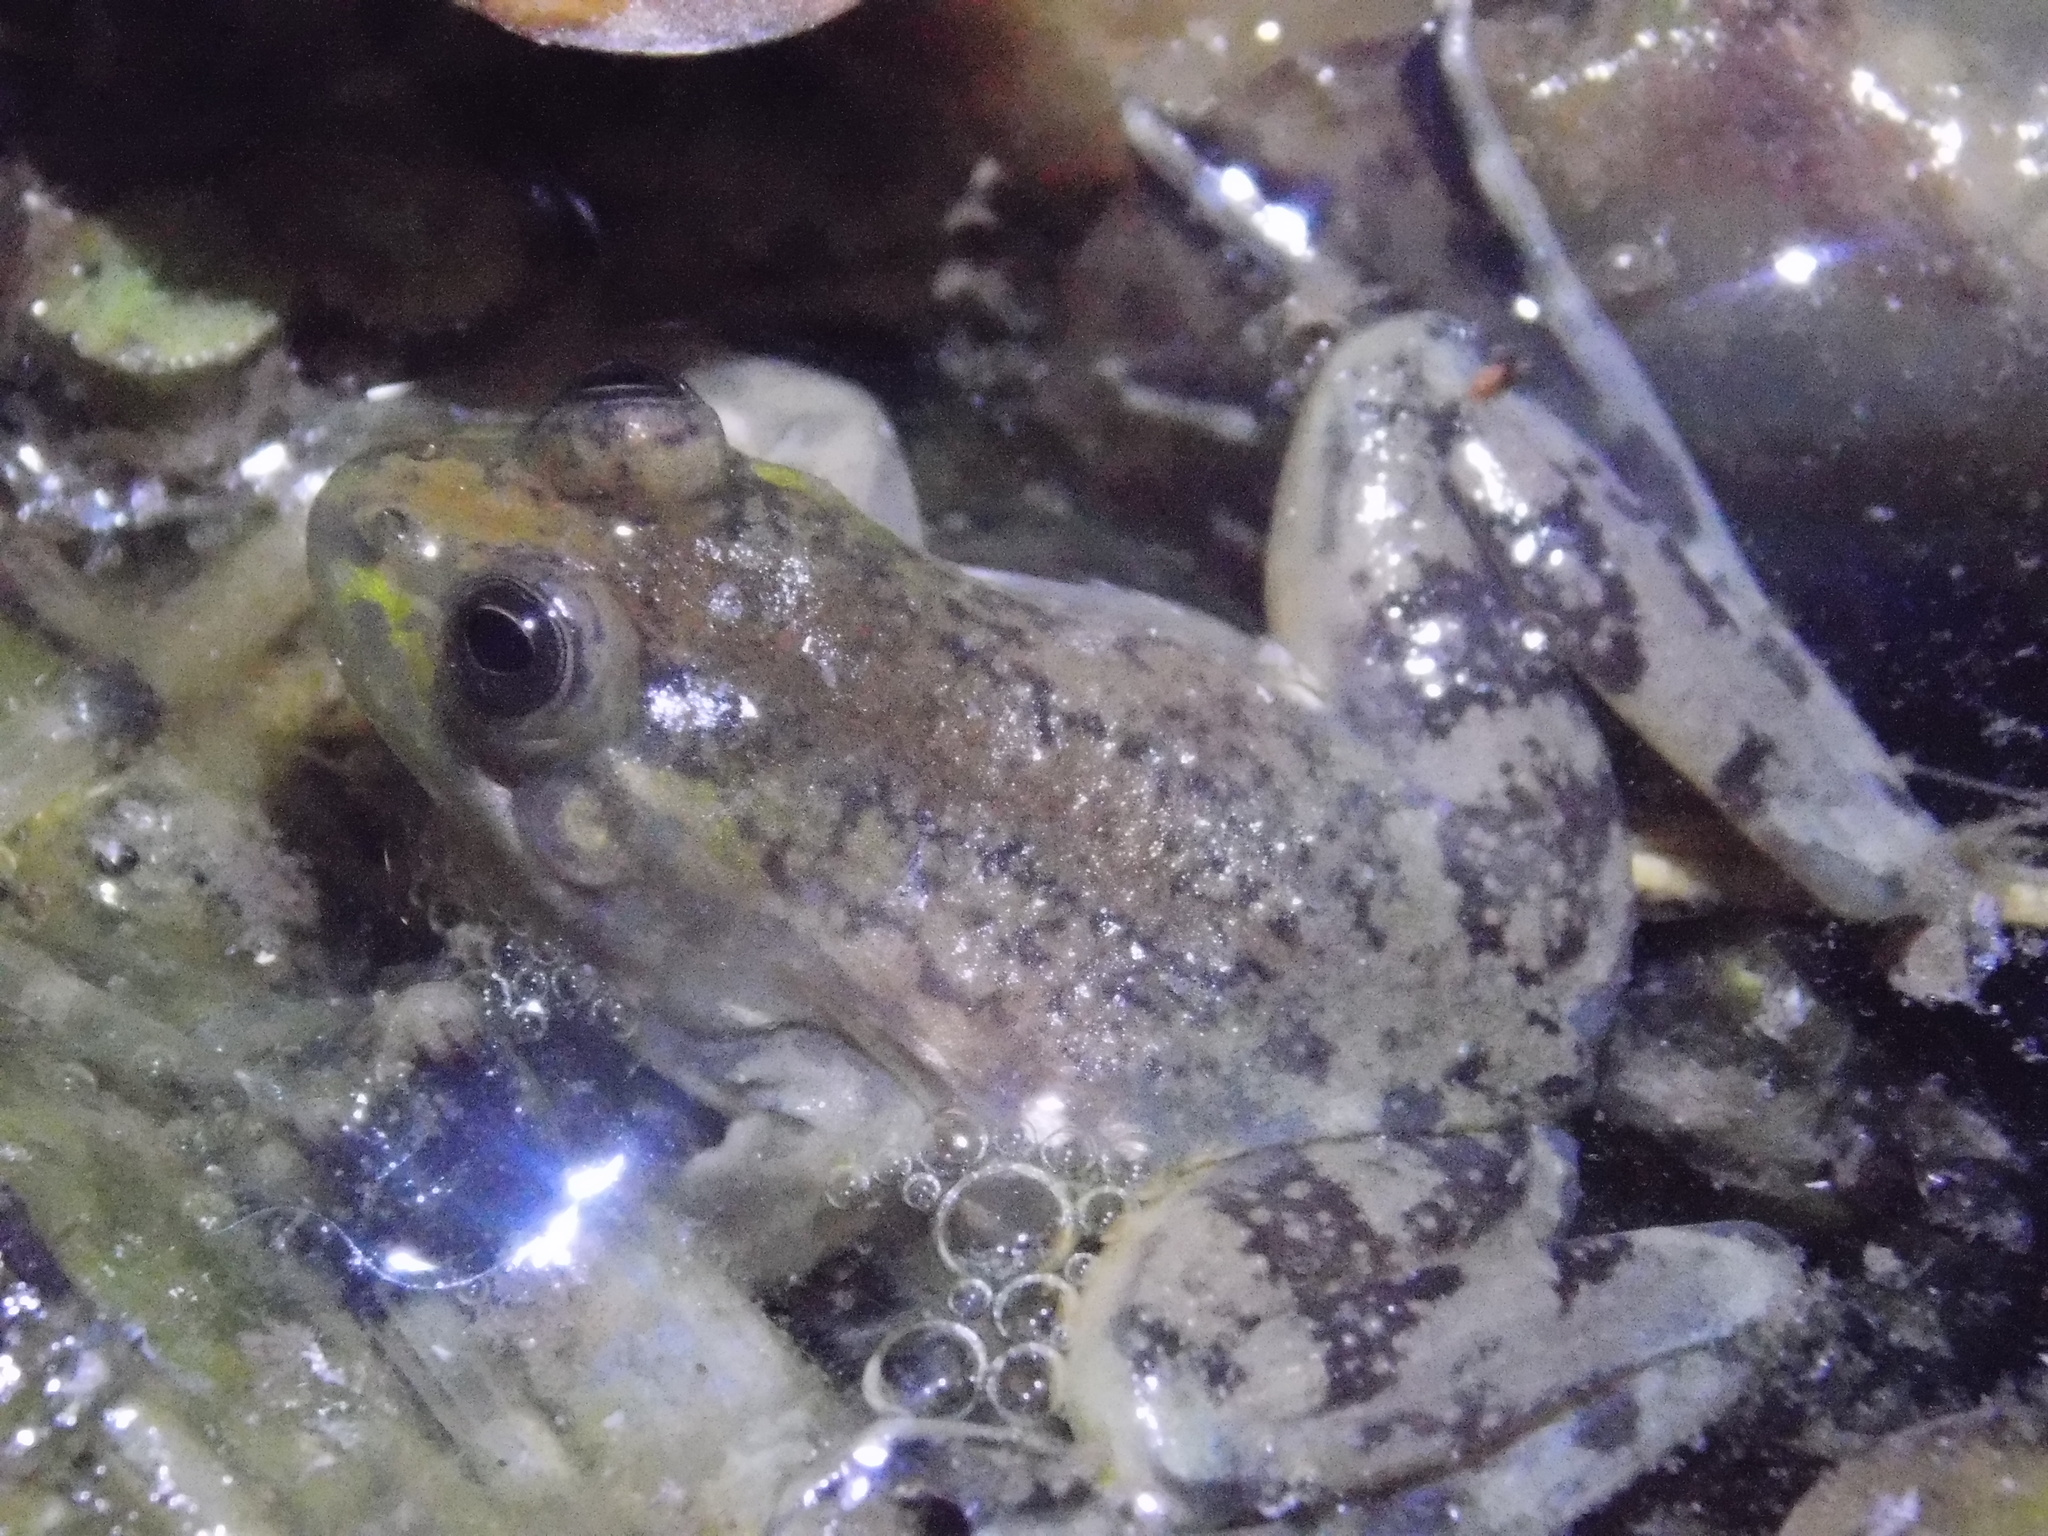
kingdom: Animalia
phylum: Chordata
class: Amphibia
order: Anura
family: Hylidae
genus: Pseudis
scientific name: Pseudis minuta
